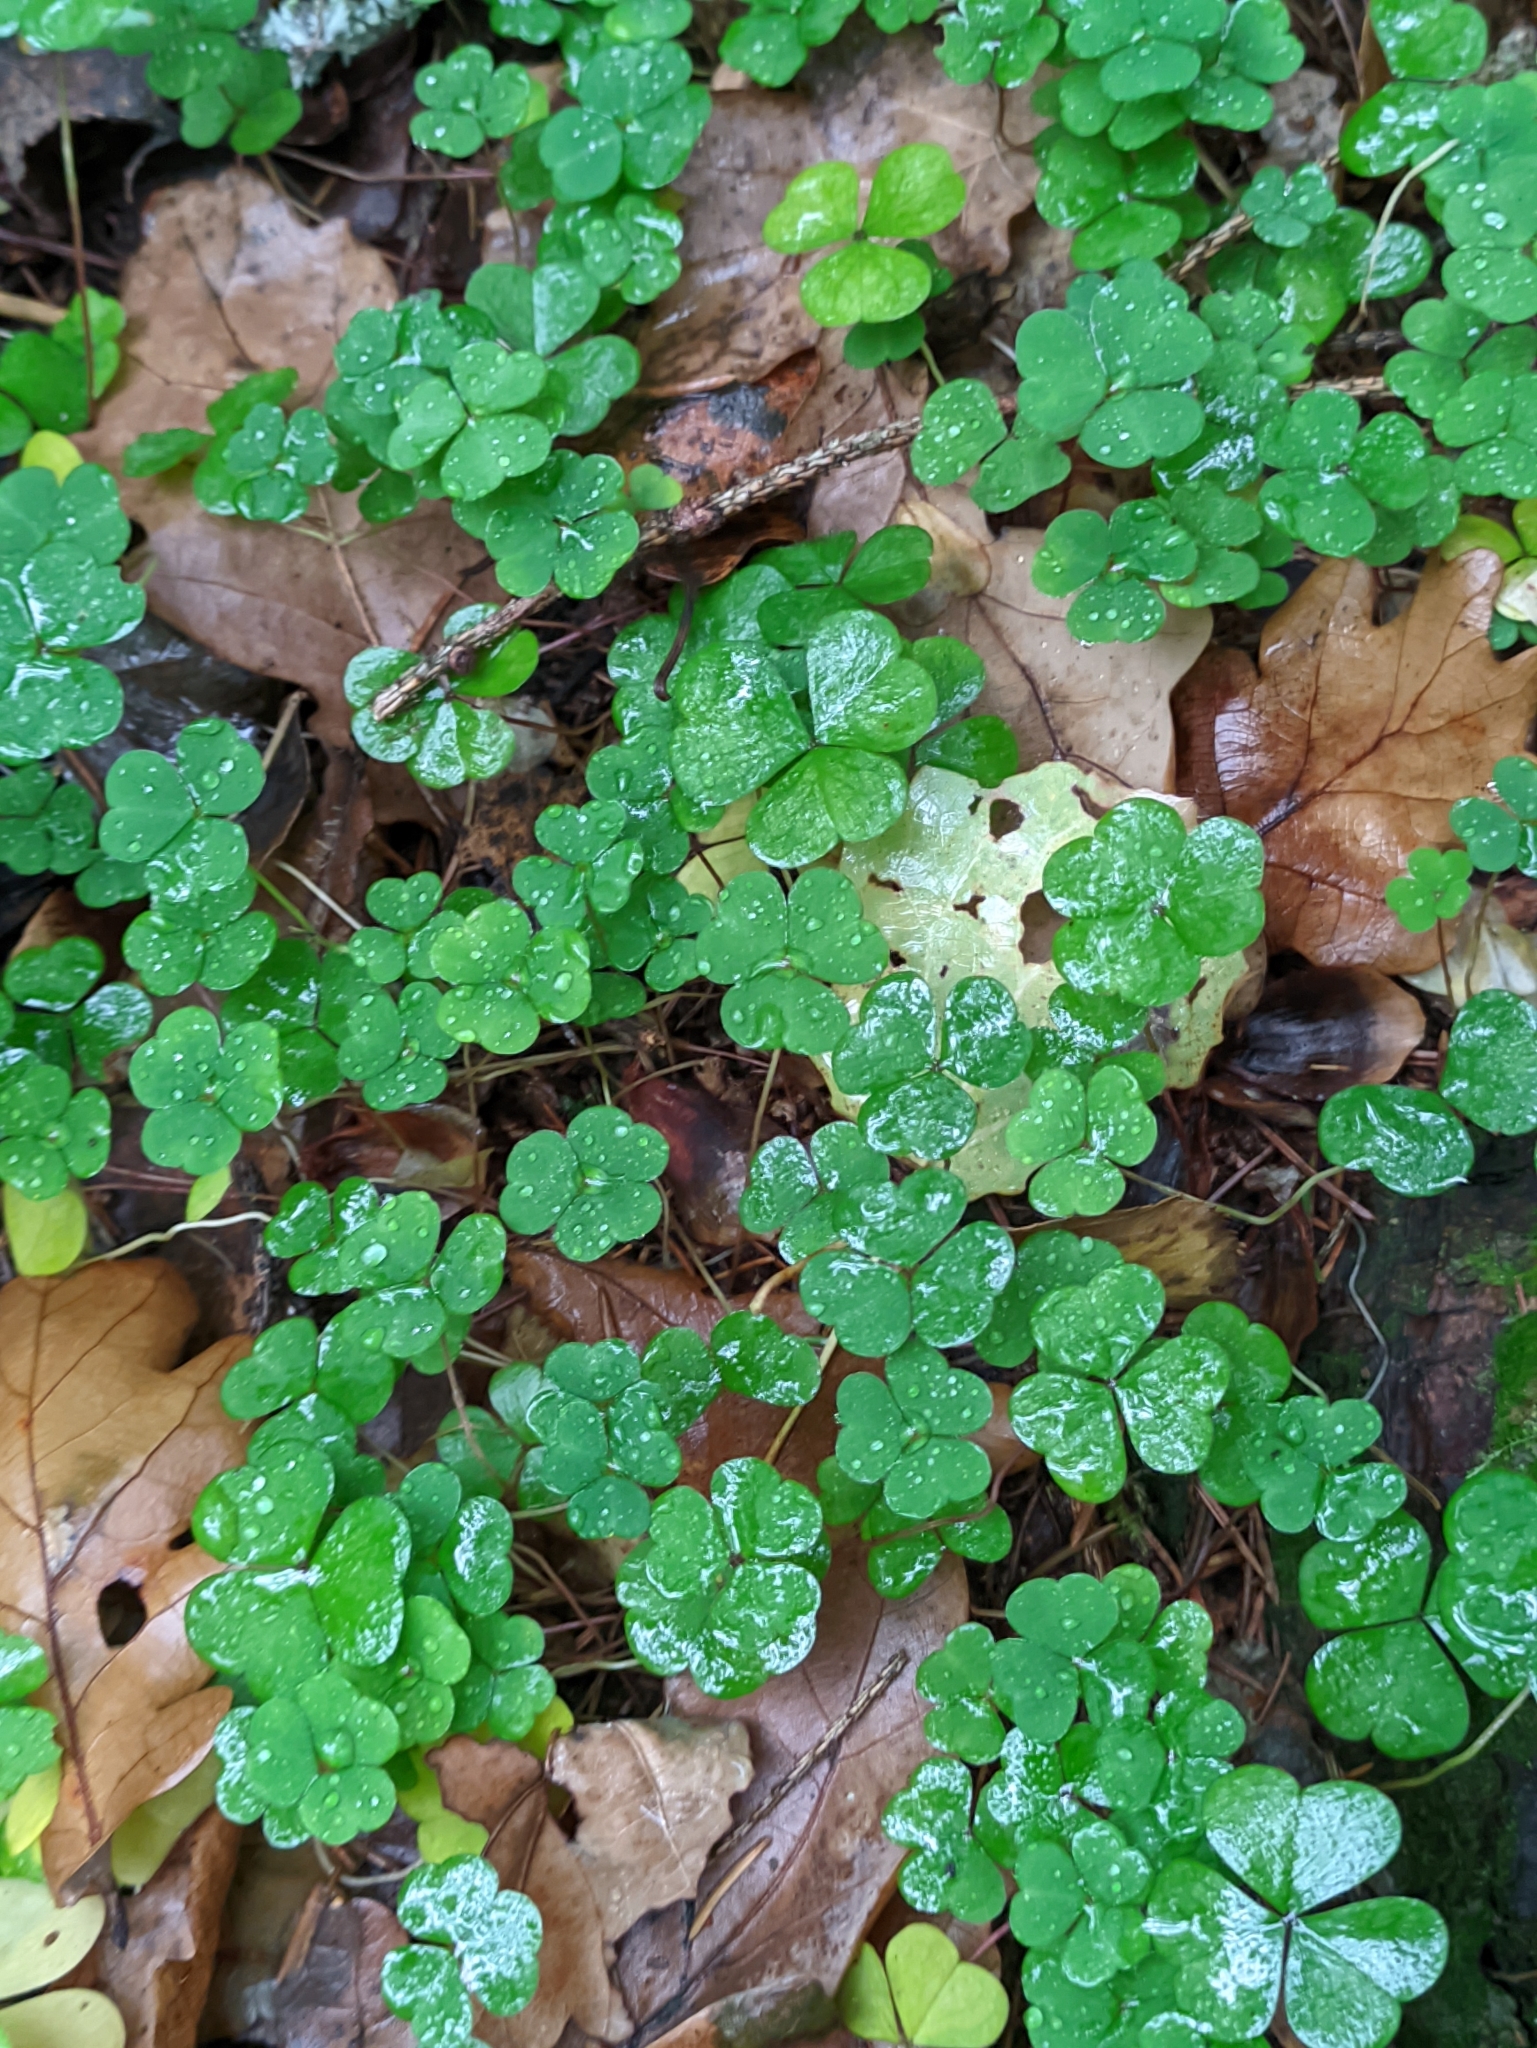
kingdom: Plantae
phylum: Tracheophyta
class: Magnoliopsida
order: Oxalidales
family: Oxalidaceae
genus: Oxalis
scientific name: Oxalis acetosella
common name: Wood-sorrel
